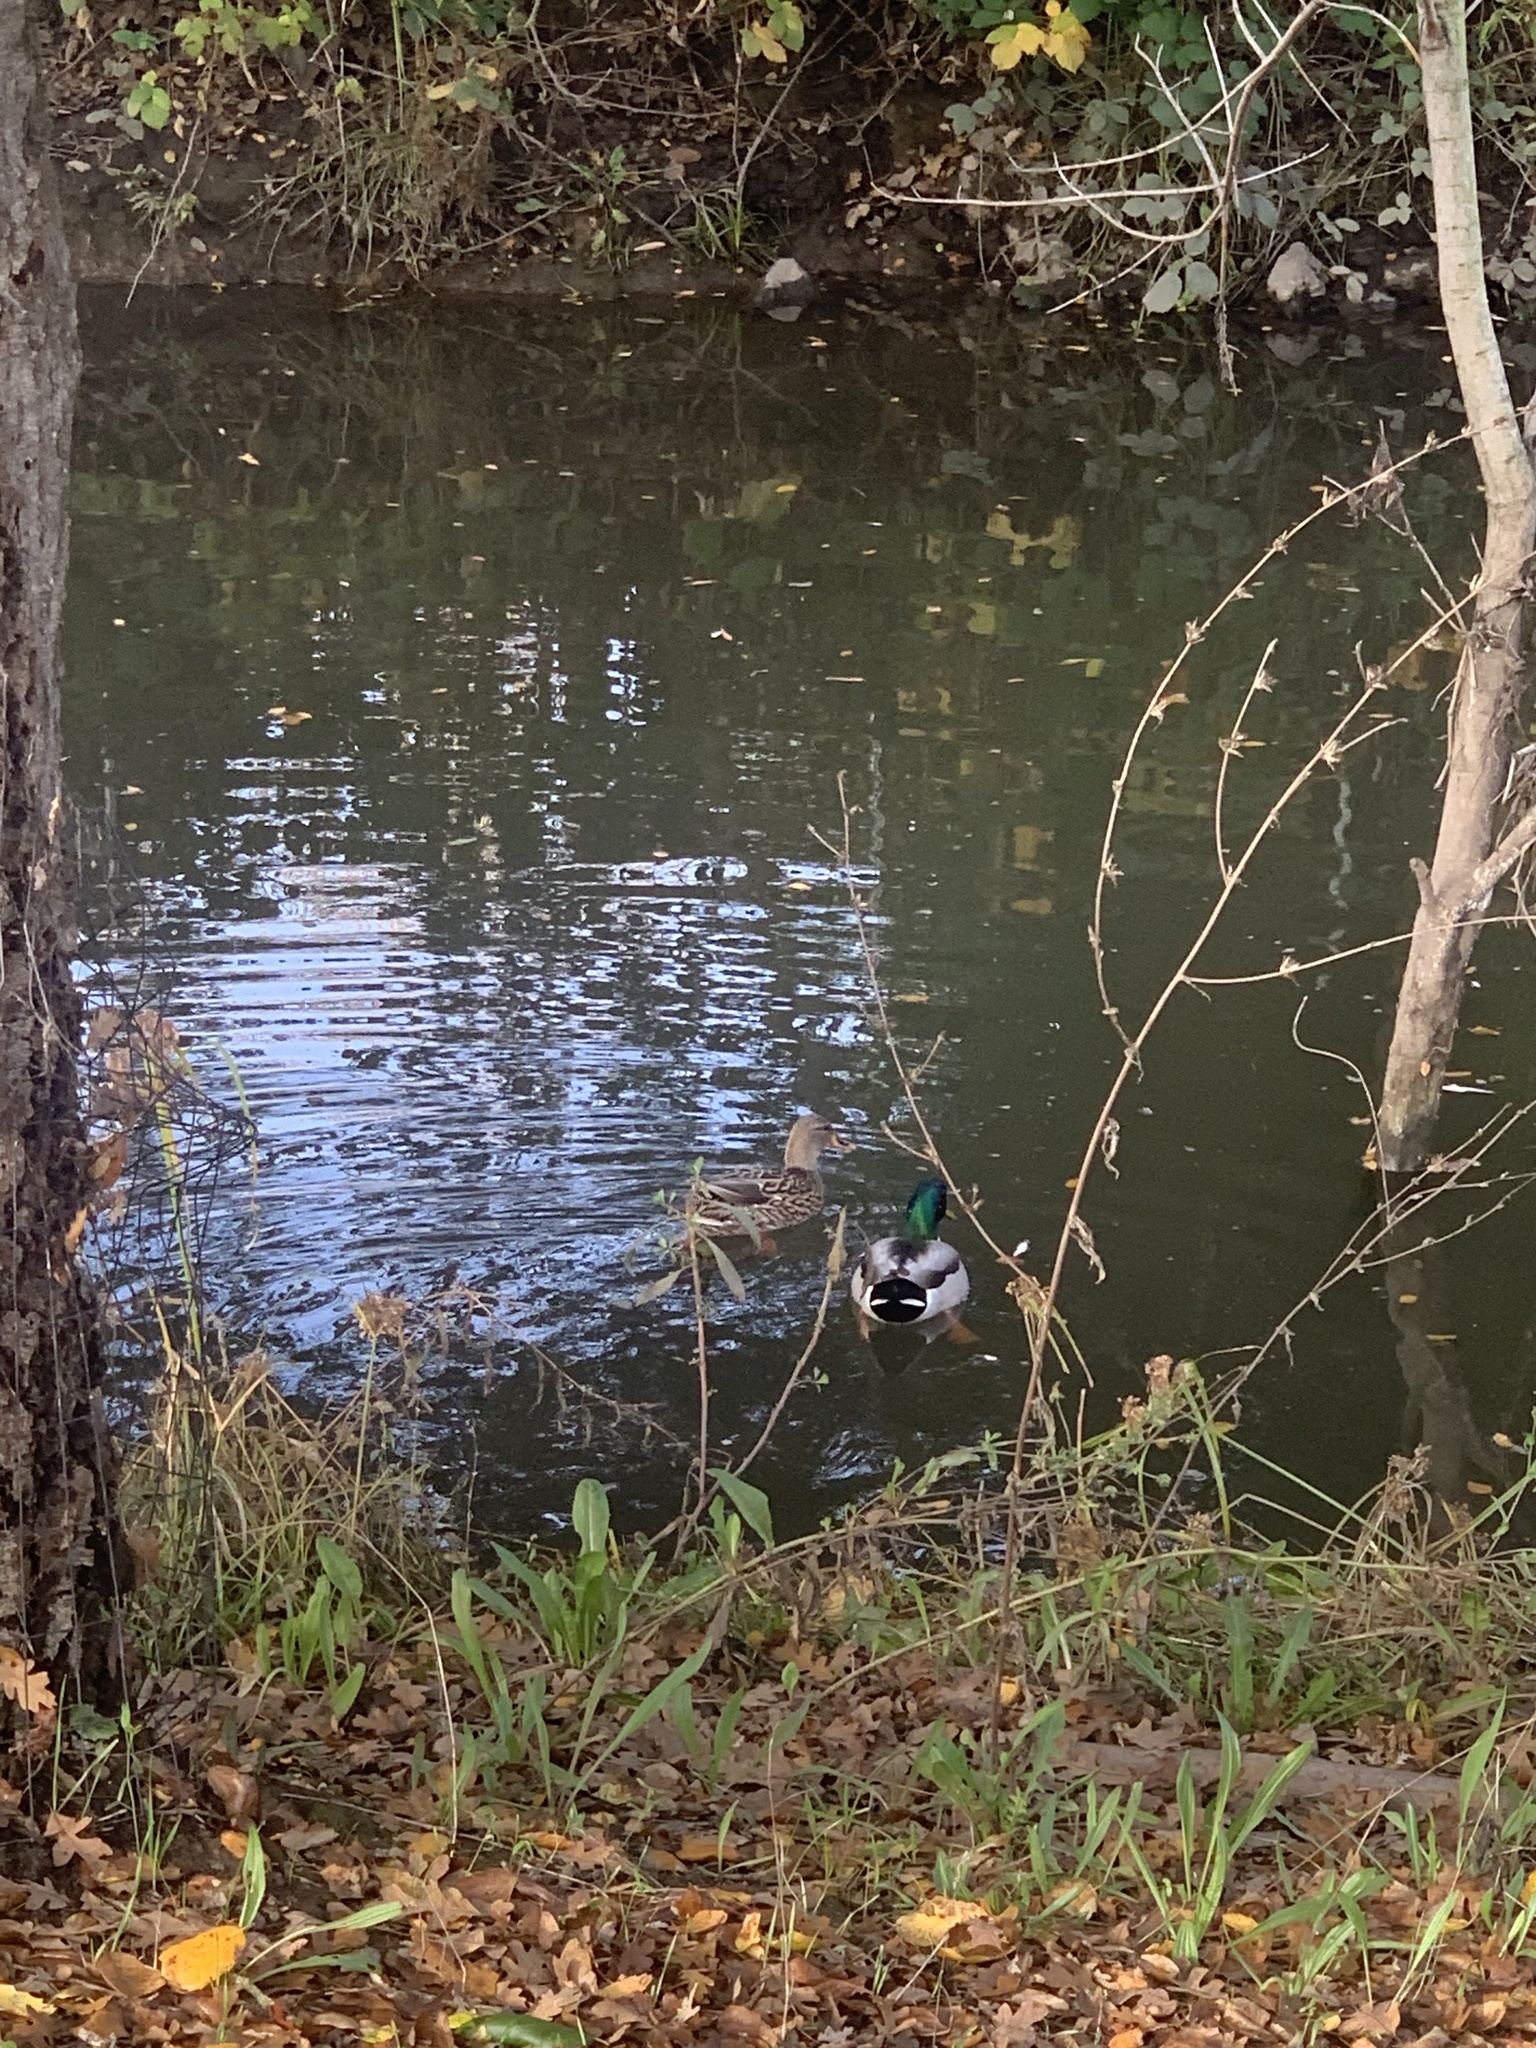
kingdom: Animalia
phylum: Chordata
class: Aves
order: Anseriformes
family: Anatidae
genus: Anas
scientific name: Anas platyrhynchos
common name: Mallard
